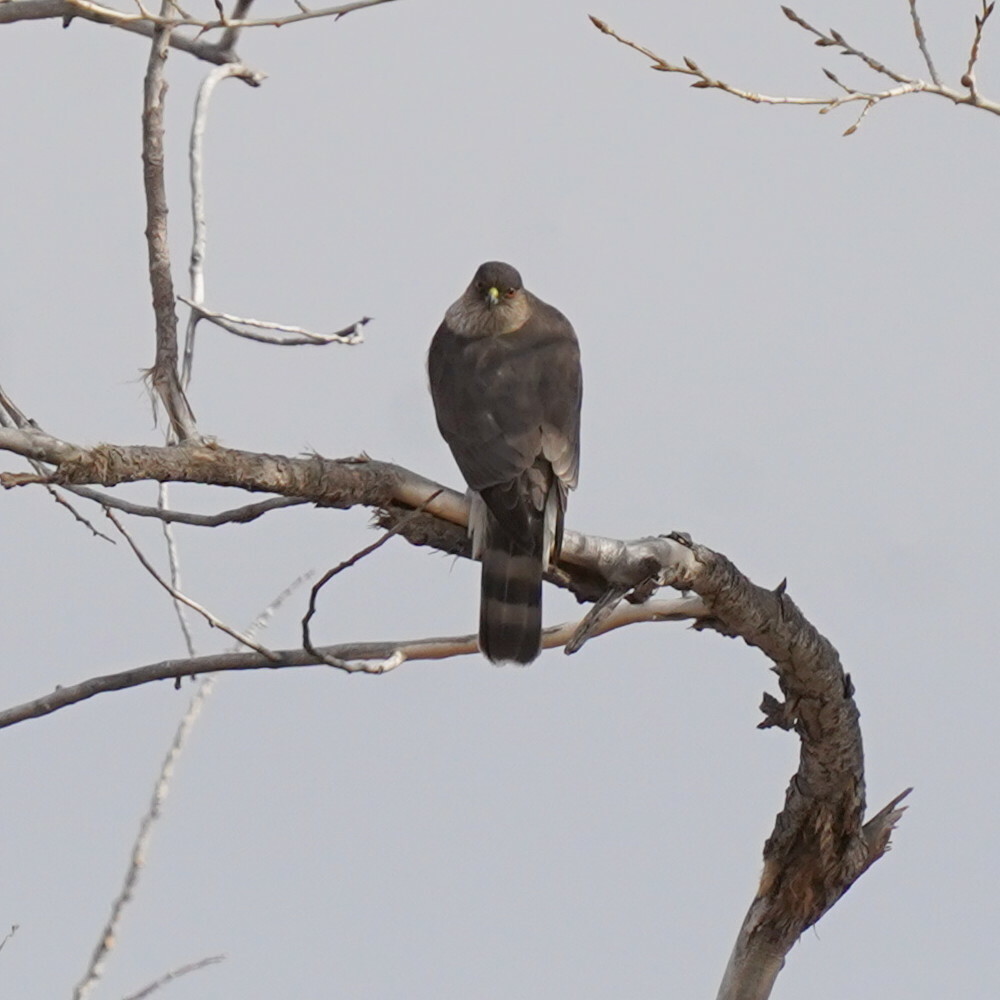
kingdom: Animalia
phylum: Chordata
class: Aves
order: Accipitriformes
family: Accipitridae
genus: Accipiter
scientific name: Accipiter striatus
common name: Sharp-shinned hawk
